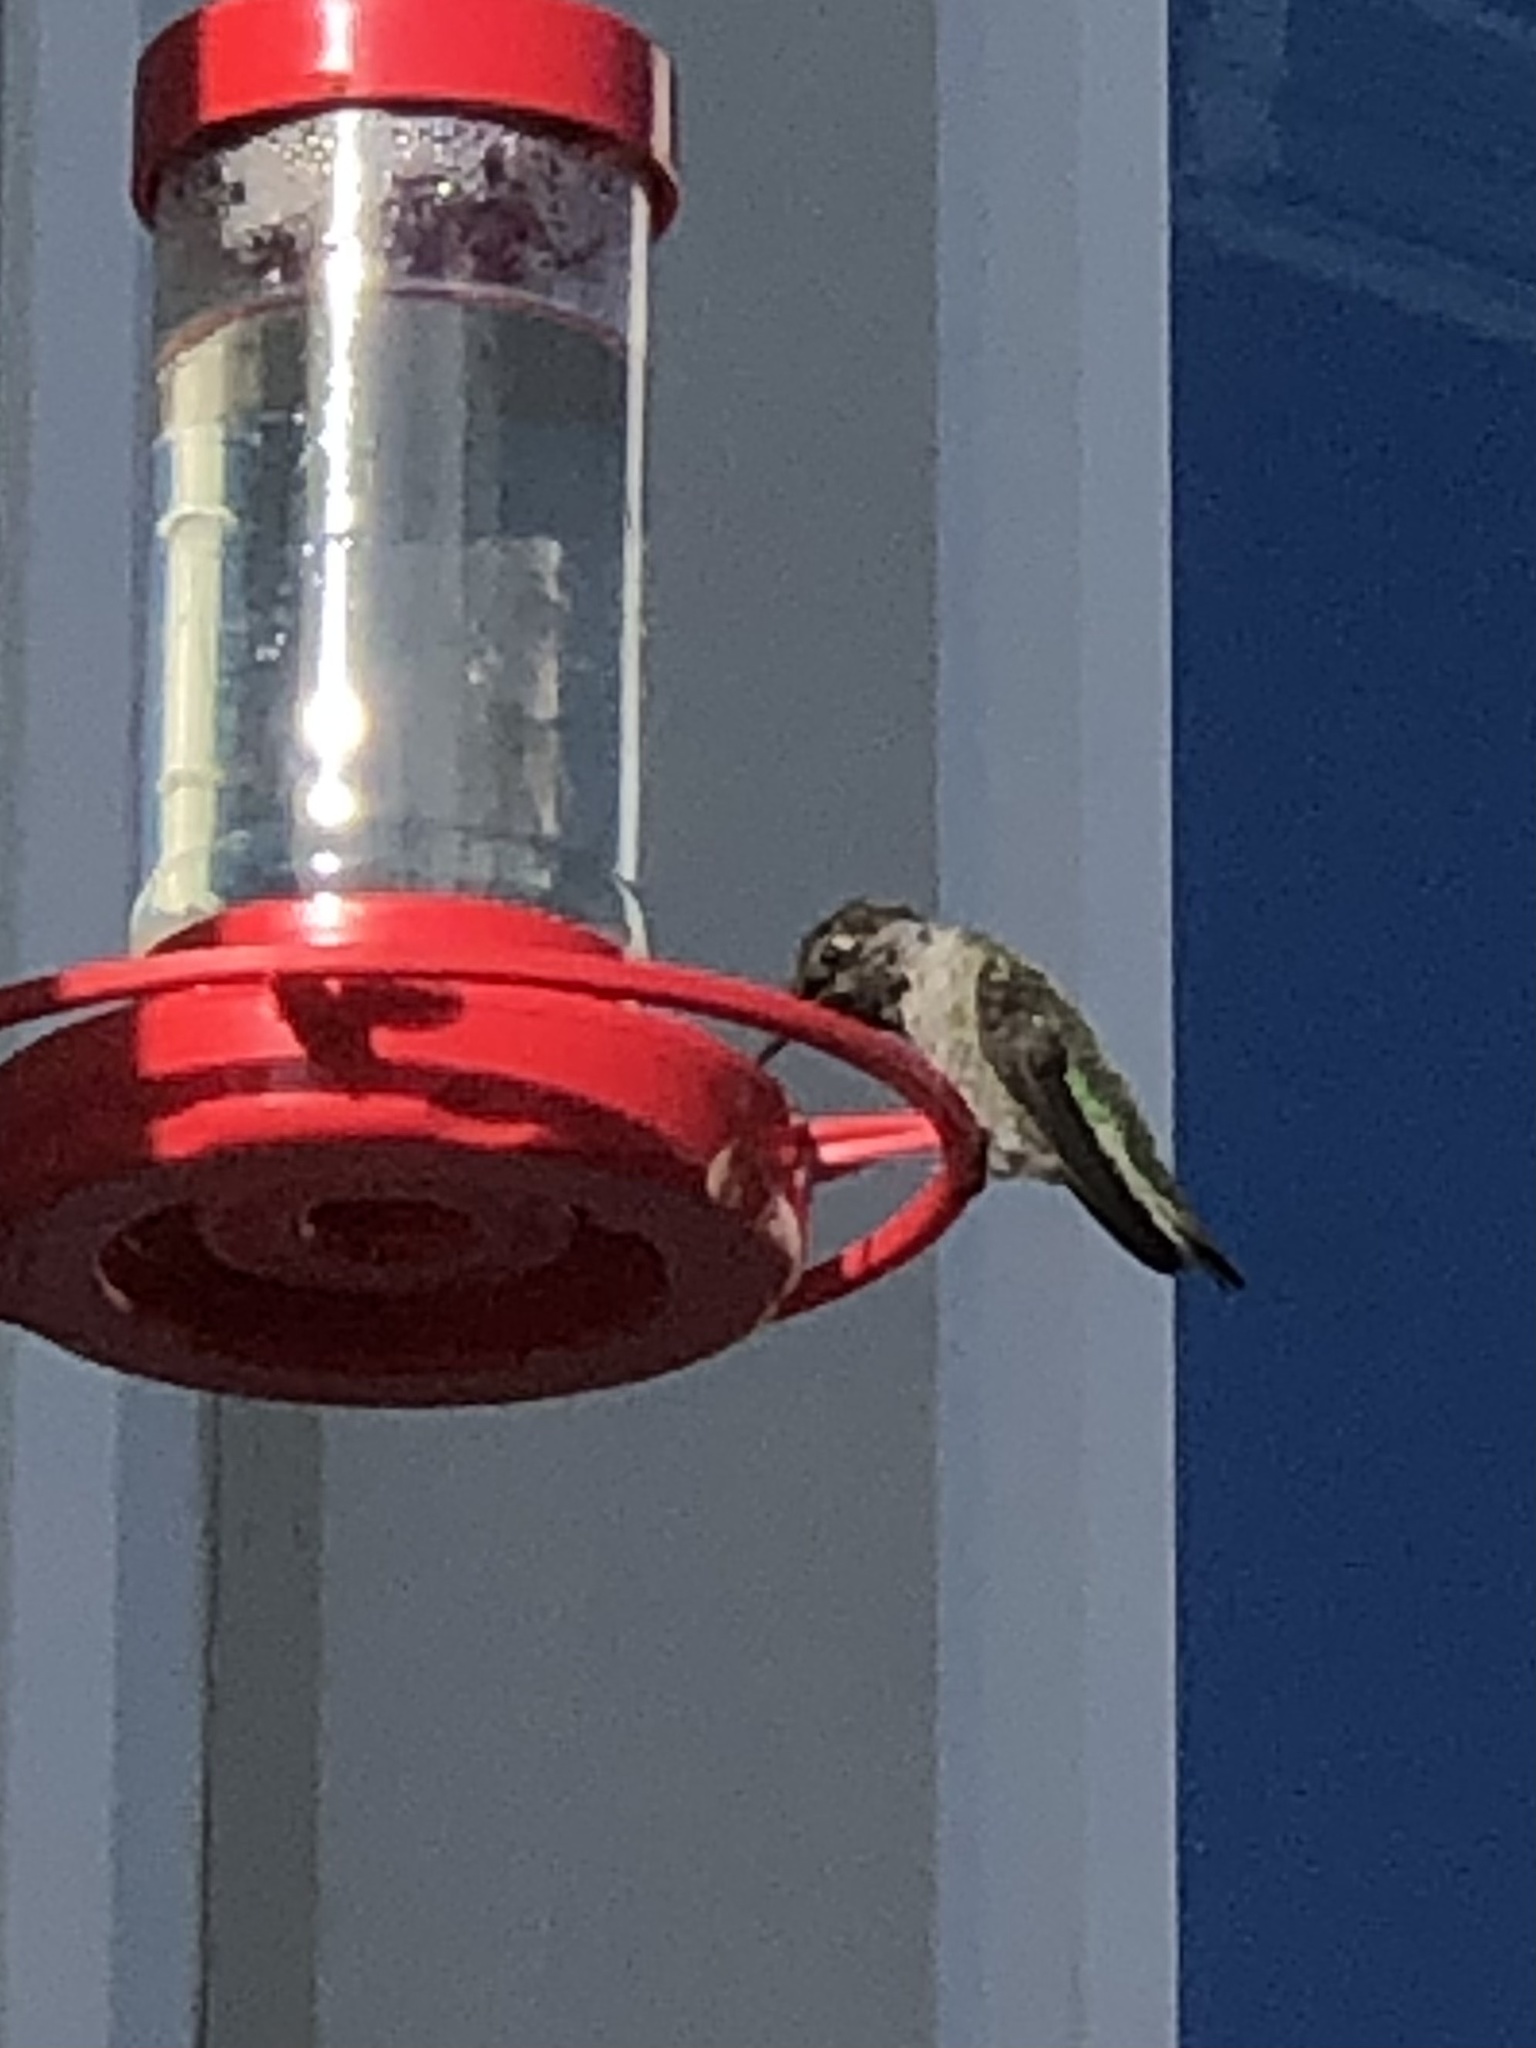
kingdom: Animalia
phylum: Chordata
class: Aves
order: Apodiformes
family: Trochilidae
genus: Calypte
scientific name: Calypte anna
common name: Anna's hummingbird
